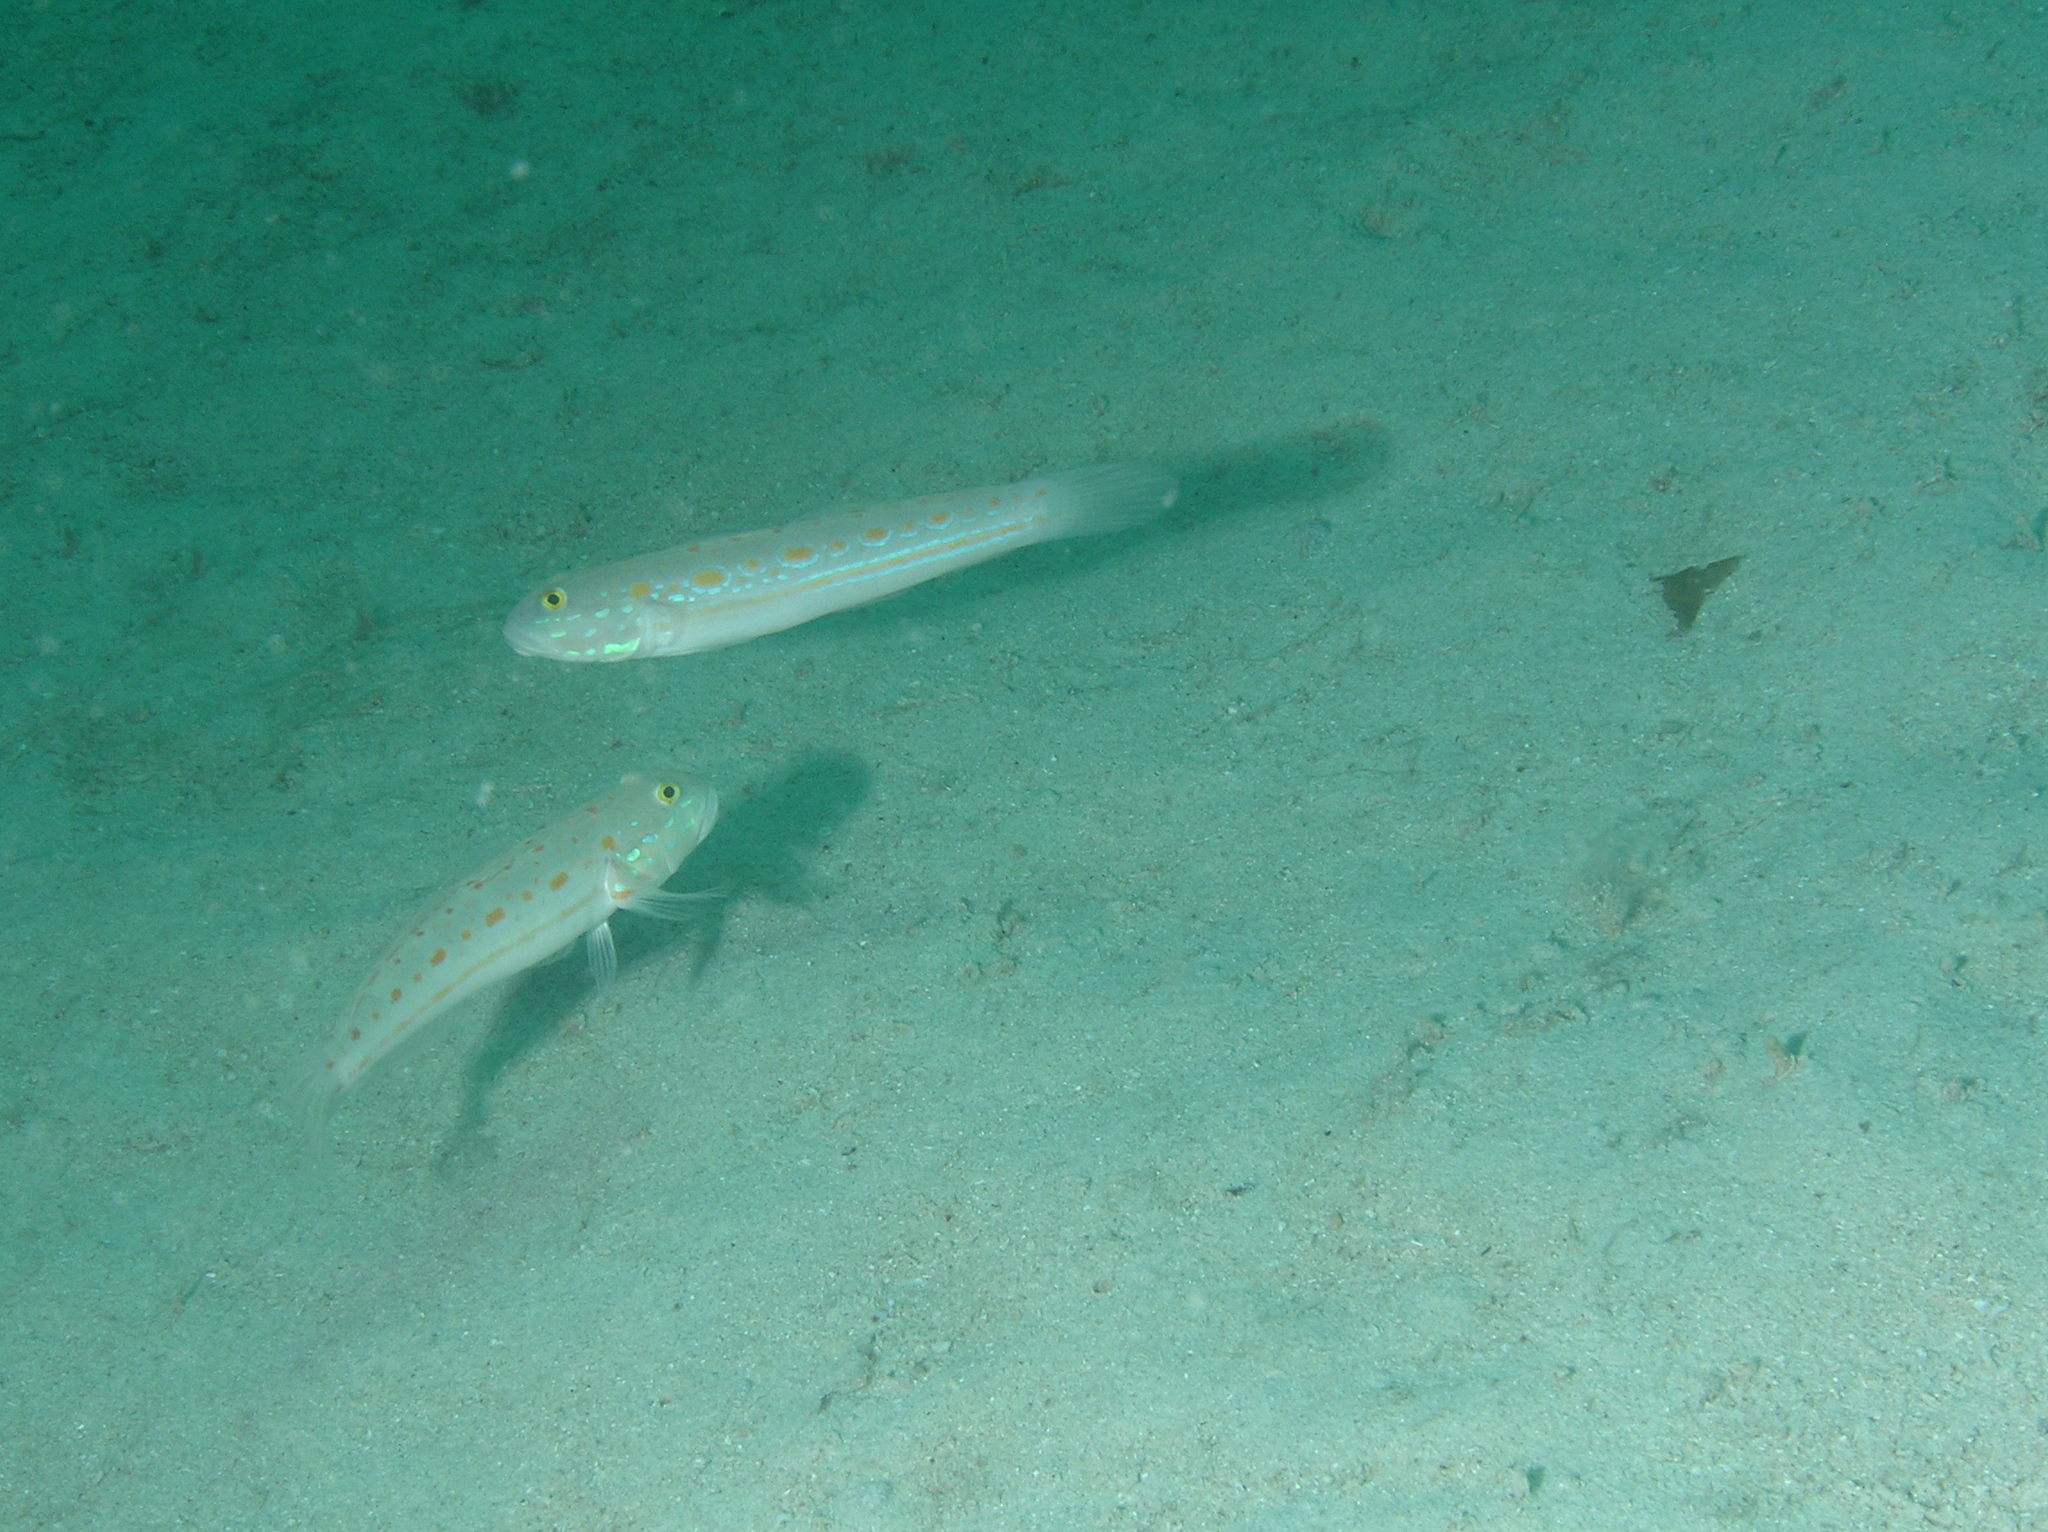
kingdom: Animalia
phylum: Chordata
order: Perciformes
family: Gobiidae
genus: Valenciennea
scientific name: Valenciennea puellaris
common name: Orange-dashed goby
